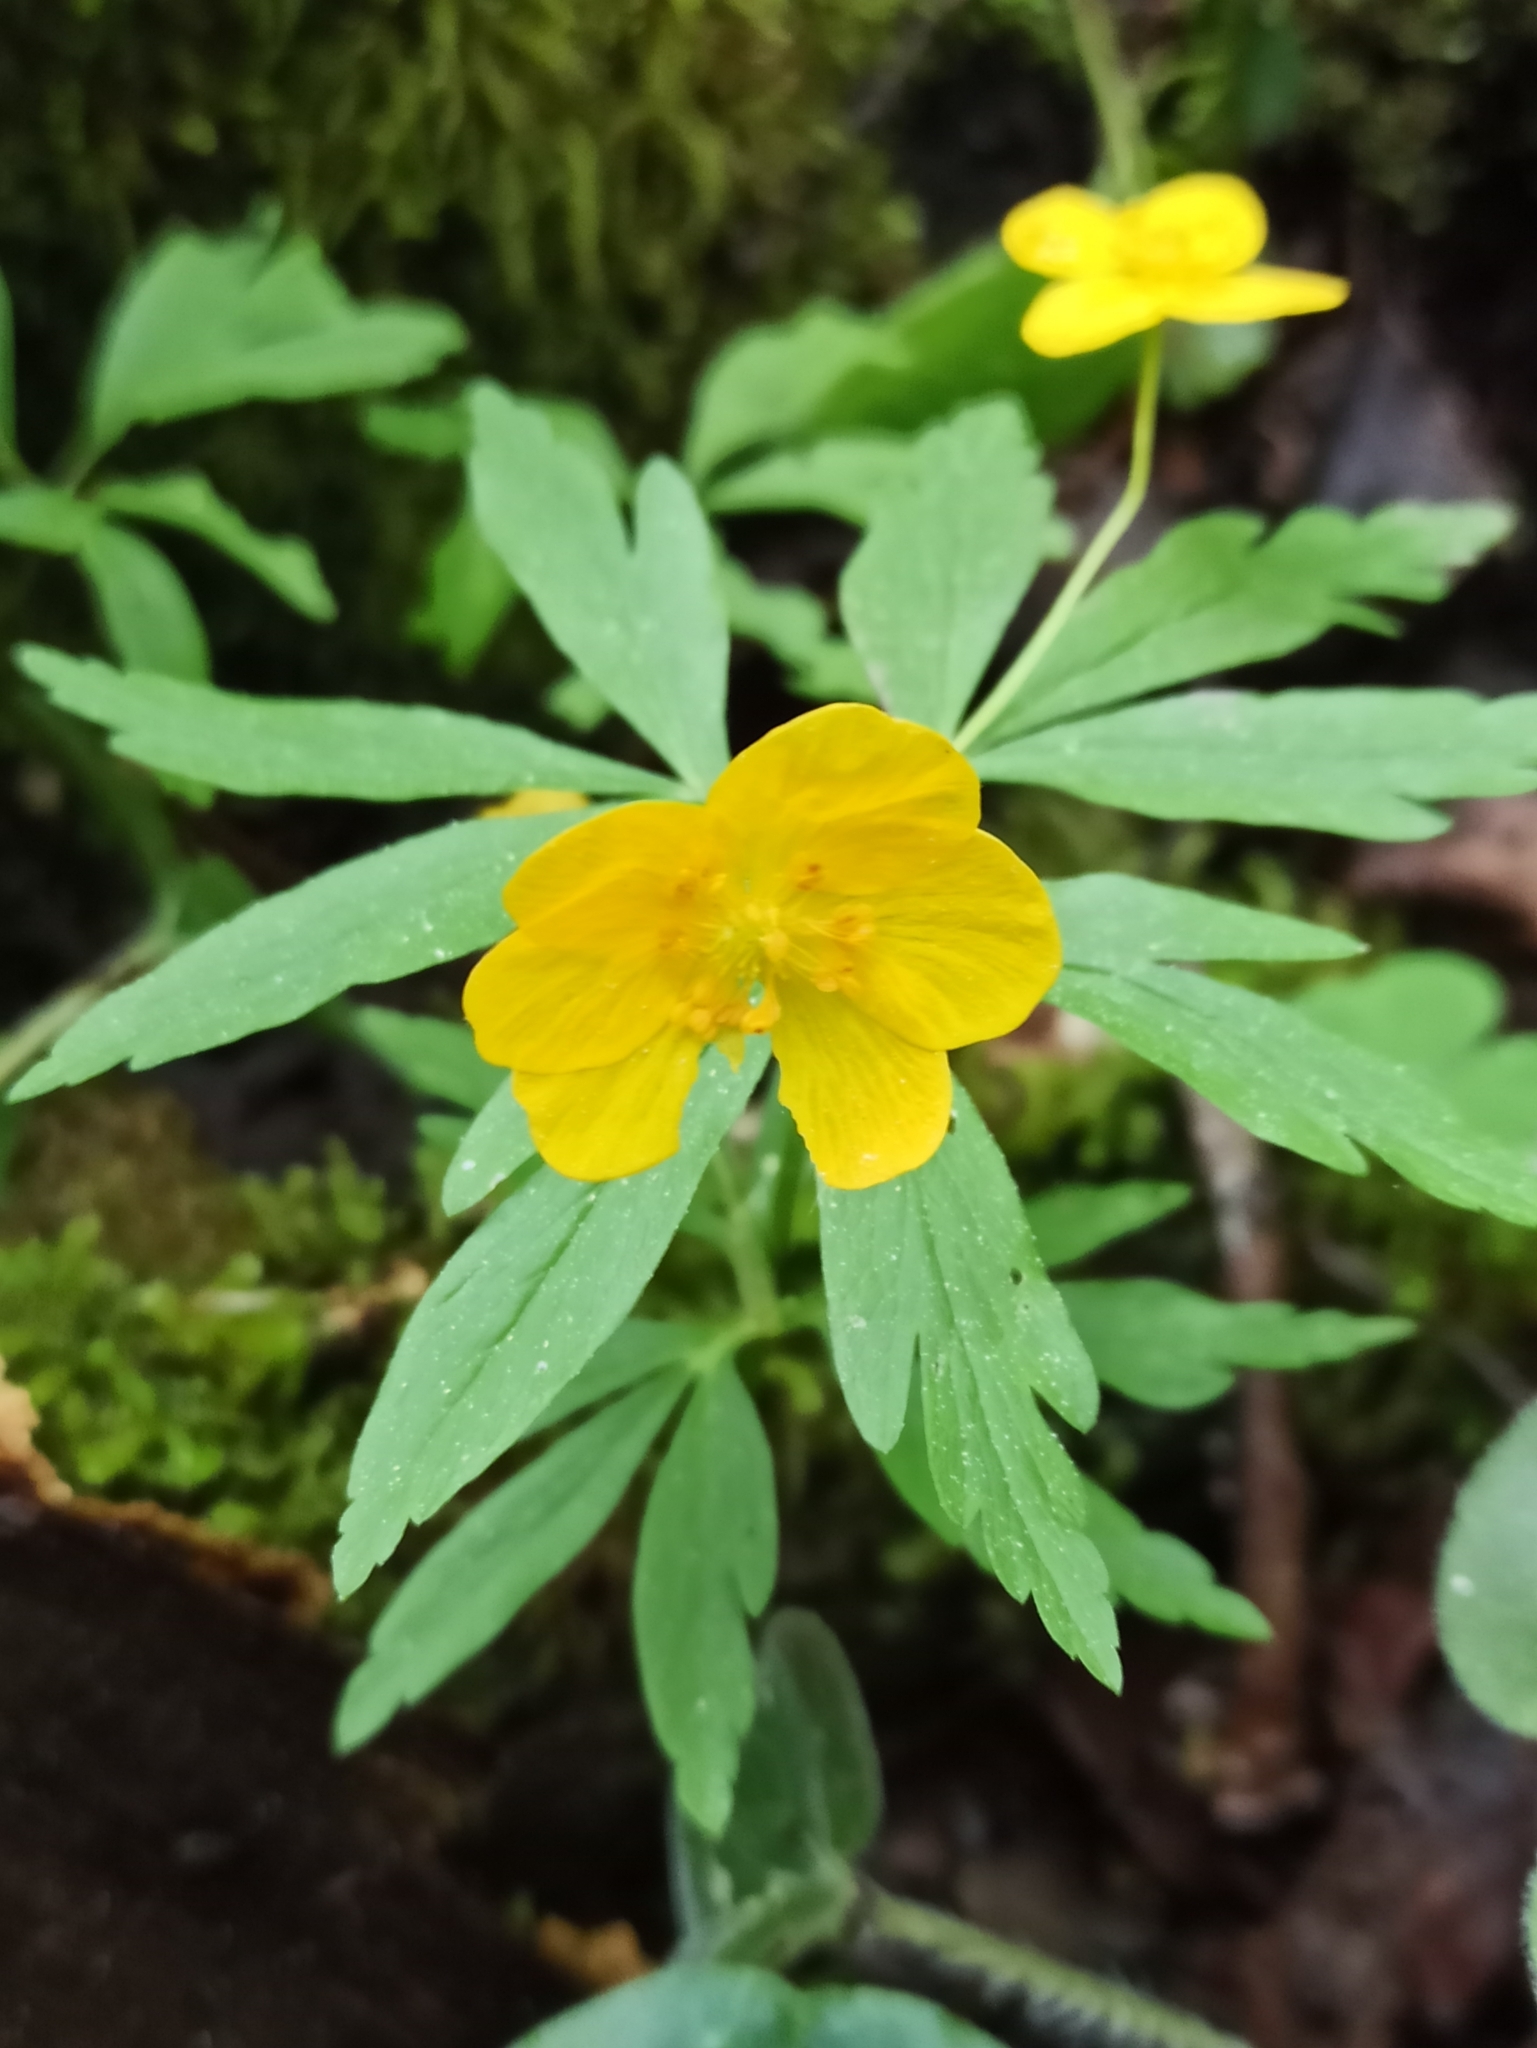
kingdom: Plantae
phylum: Tracheophyta
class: Magnoliopsida
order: Ranunculales
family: Ranunculaceae
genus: Anemone
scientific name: Anemone ranunculoides
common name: Yellow anemone
